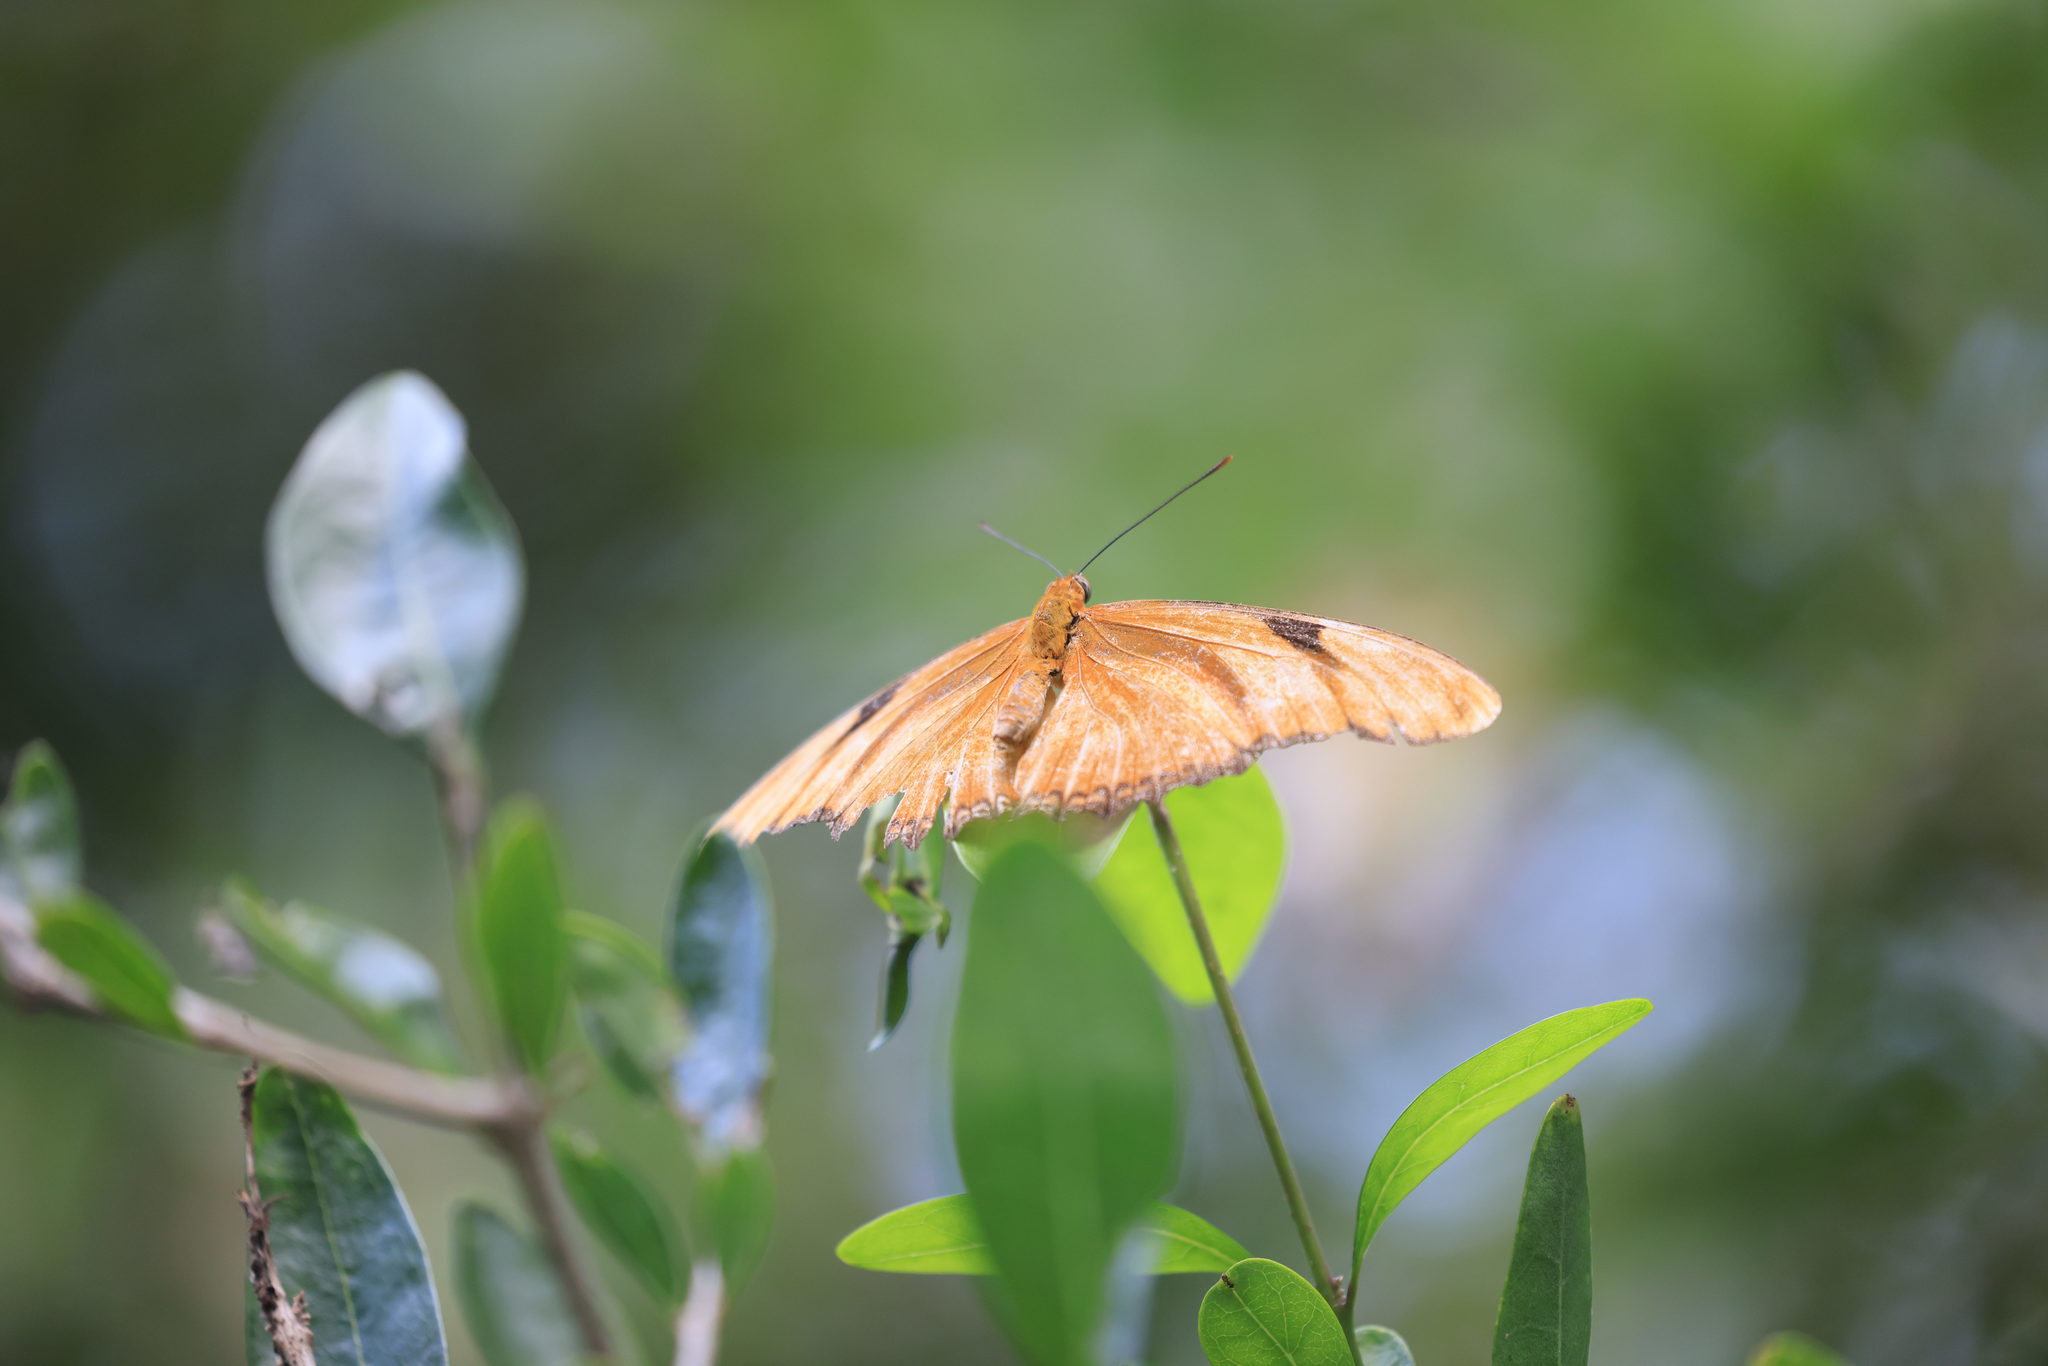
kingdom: Animalia
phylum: Arthropoda
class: Insecta
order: Lepidoptera
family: Nymphalidae
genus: Dryas
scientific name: Dryas iulia
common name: Flambeau
